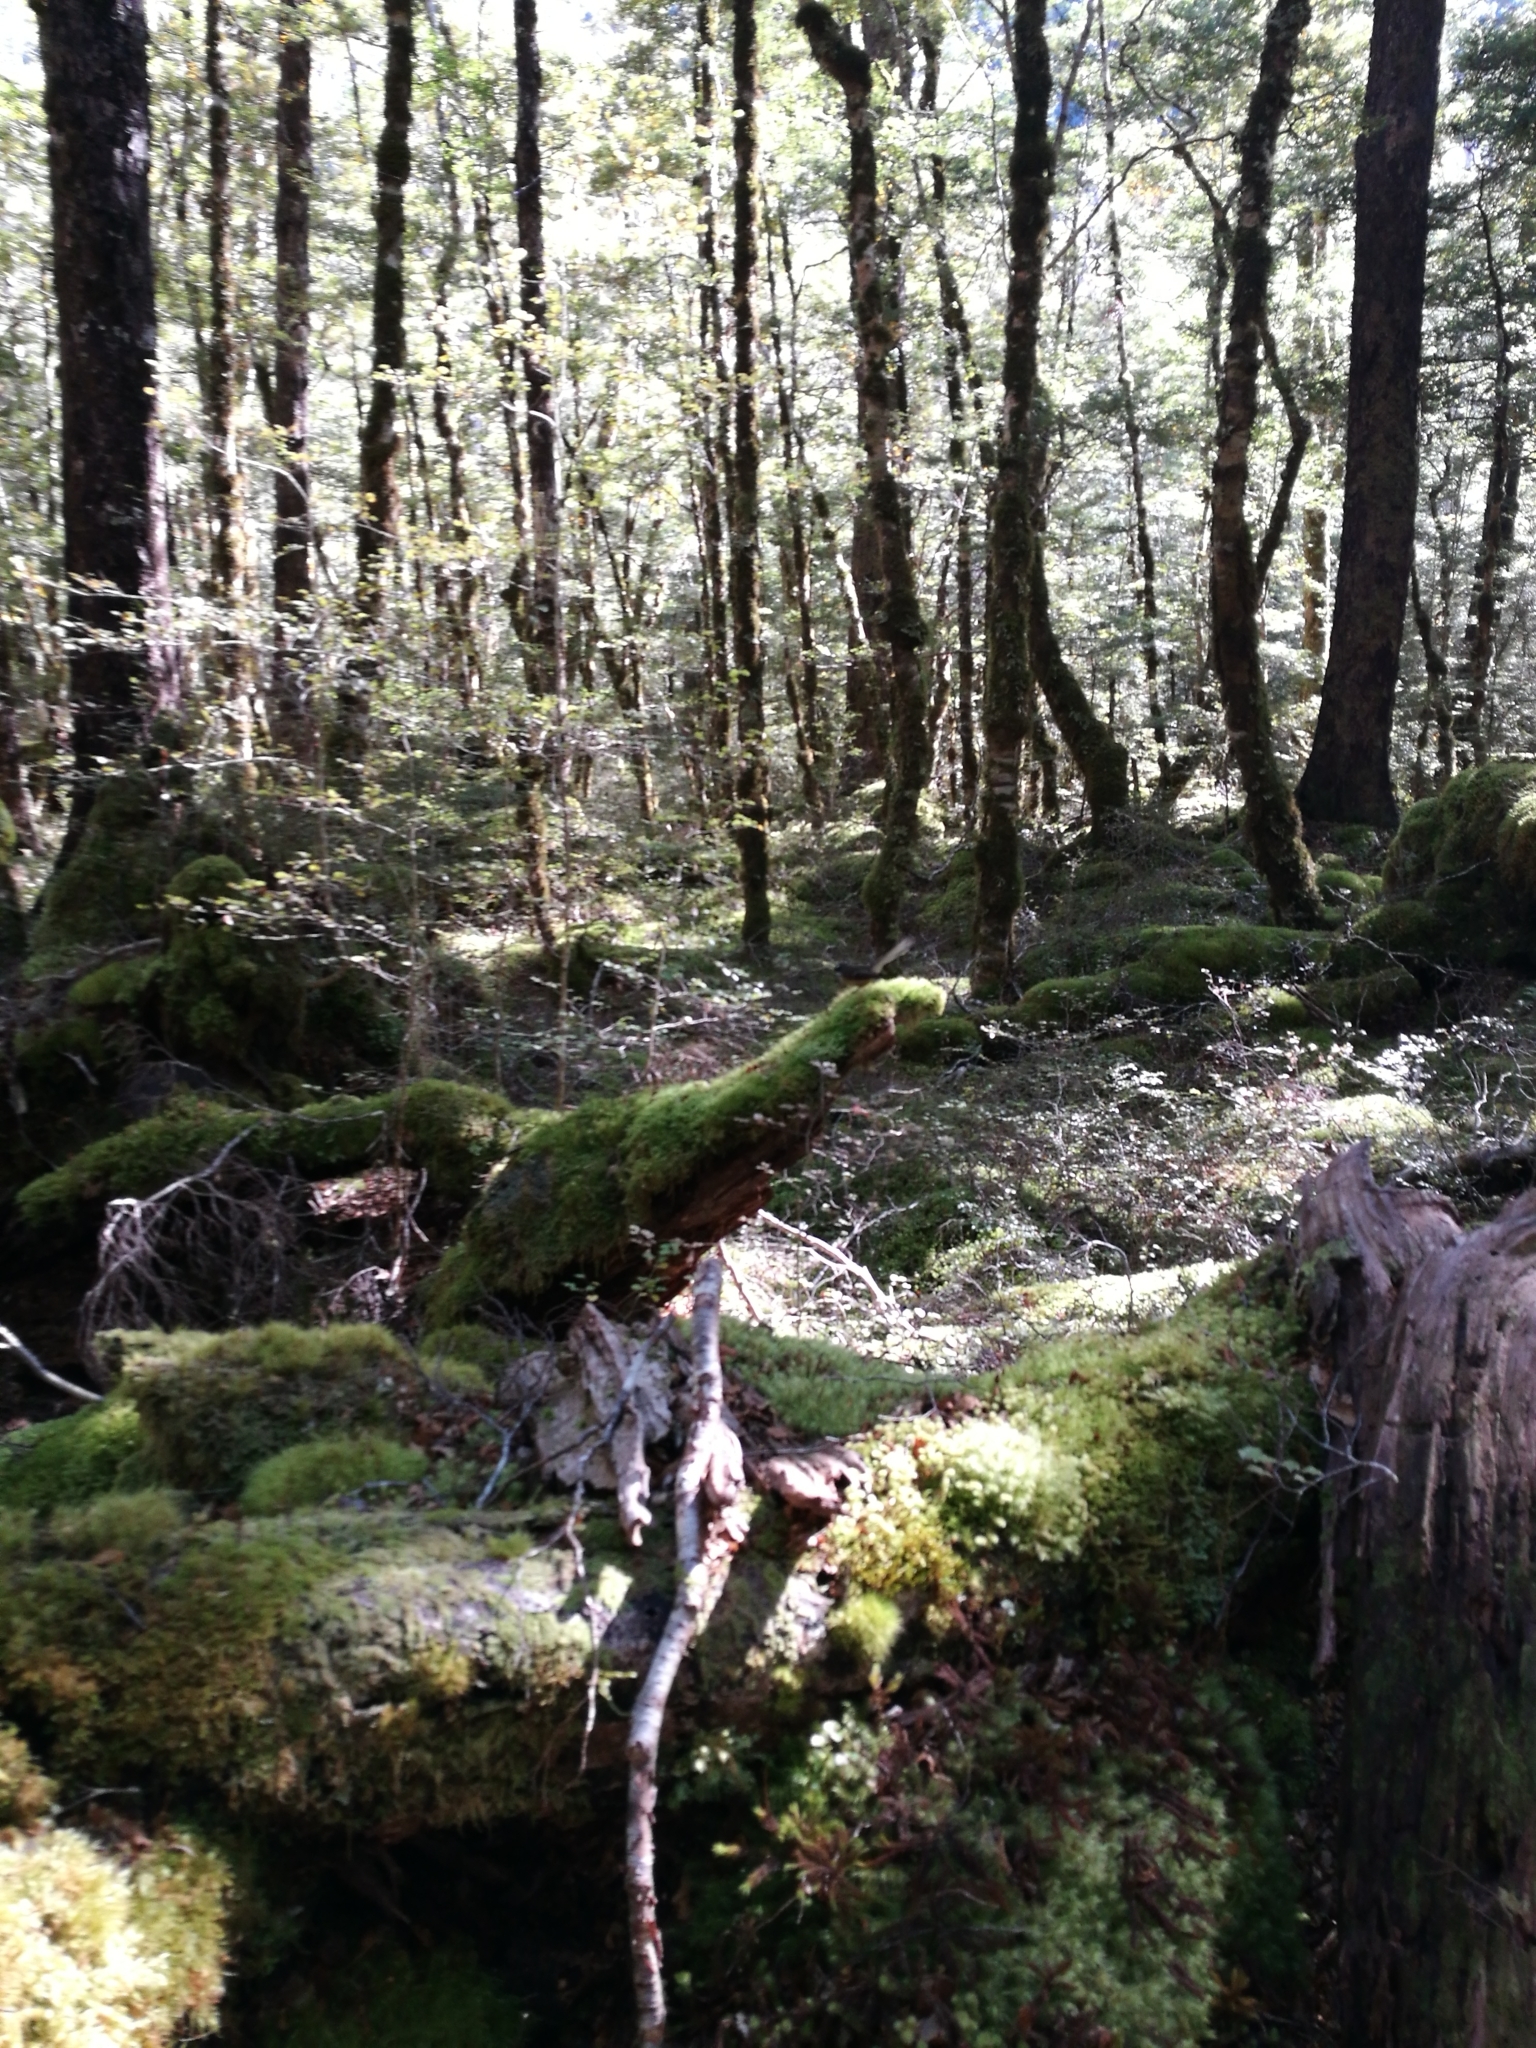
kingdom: Animalia
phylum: Chordata
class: Aves
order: Passeriformes
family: Rhipiduridae
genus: Rhipidura
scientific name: Rhipidura fuliginosa
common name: New zealand fantail
